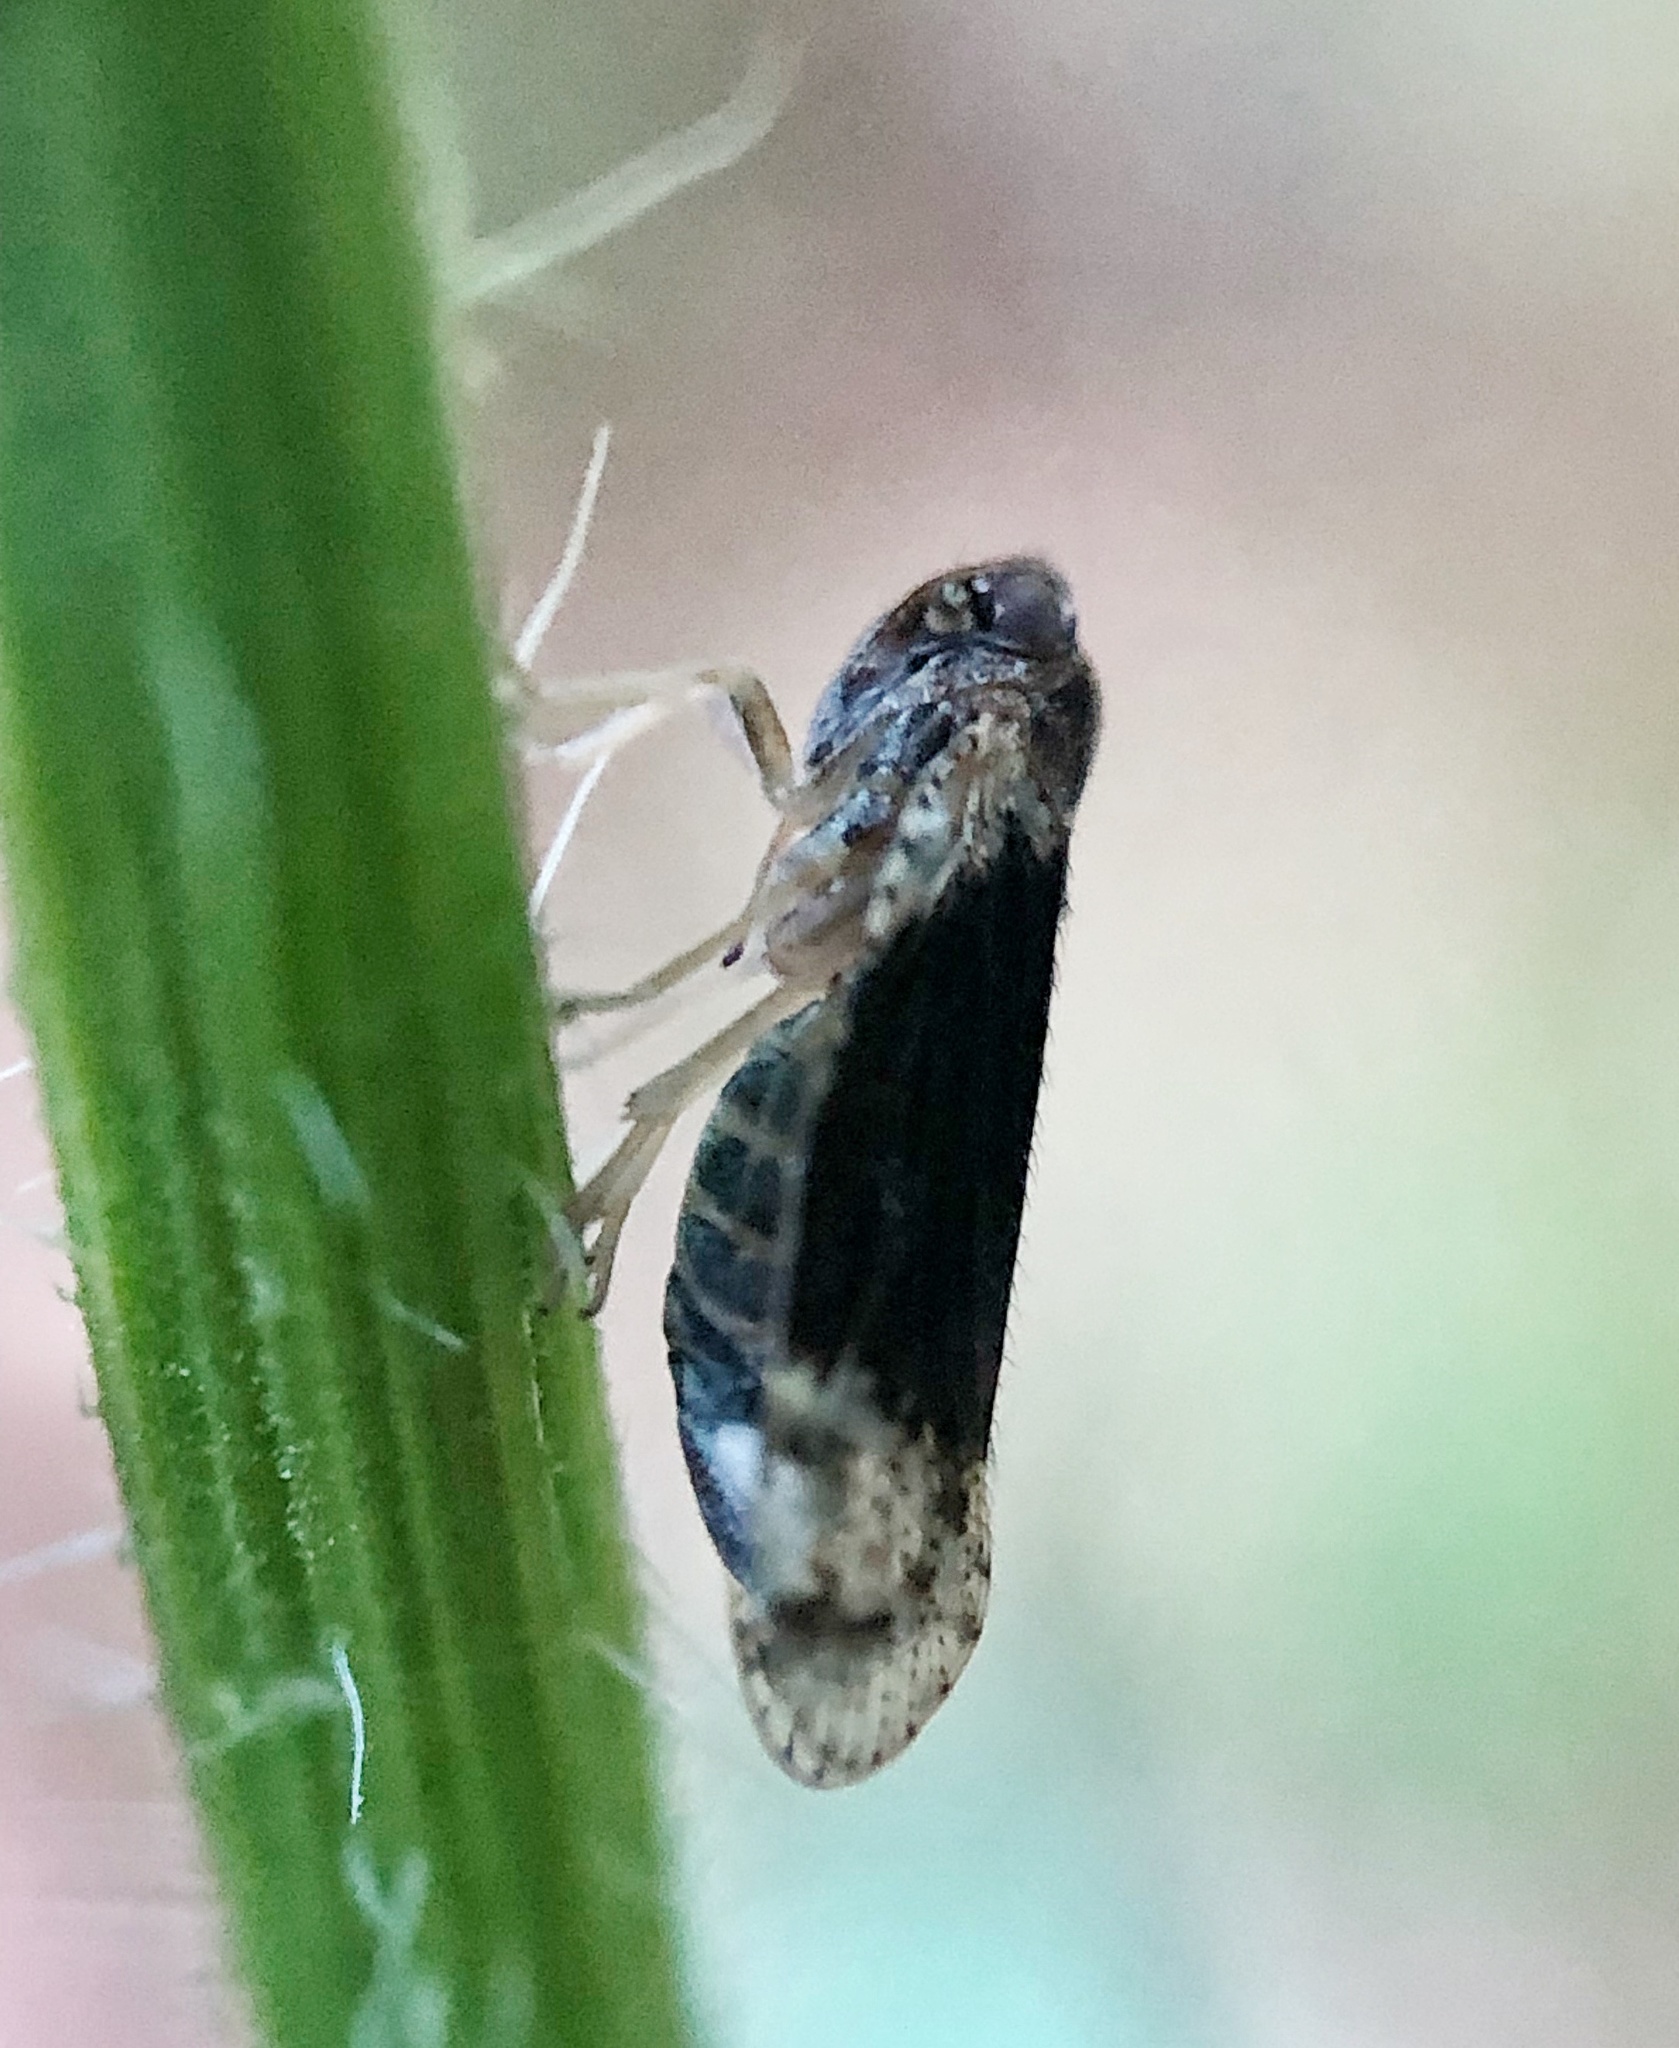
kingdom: Animalia
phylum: Arthropoda
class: Insecta
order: Hemiptera
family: Cixiidae
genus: Cixius
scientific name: Cixius apicalis
